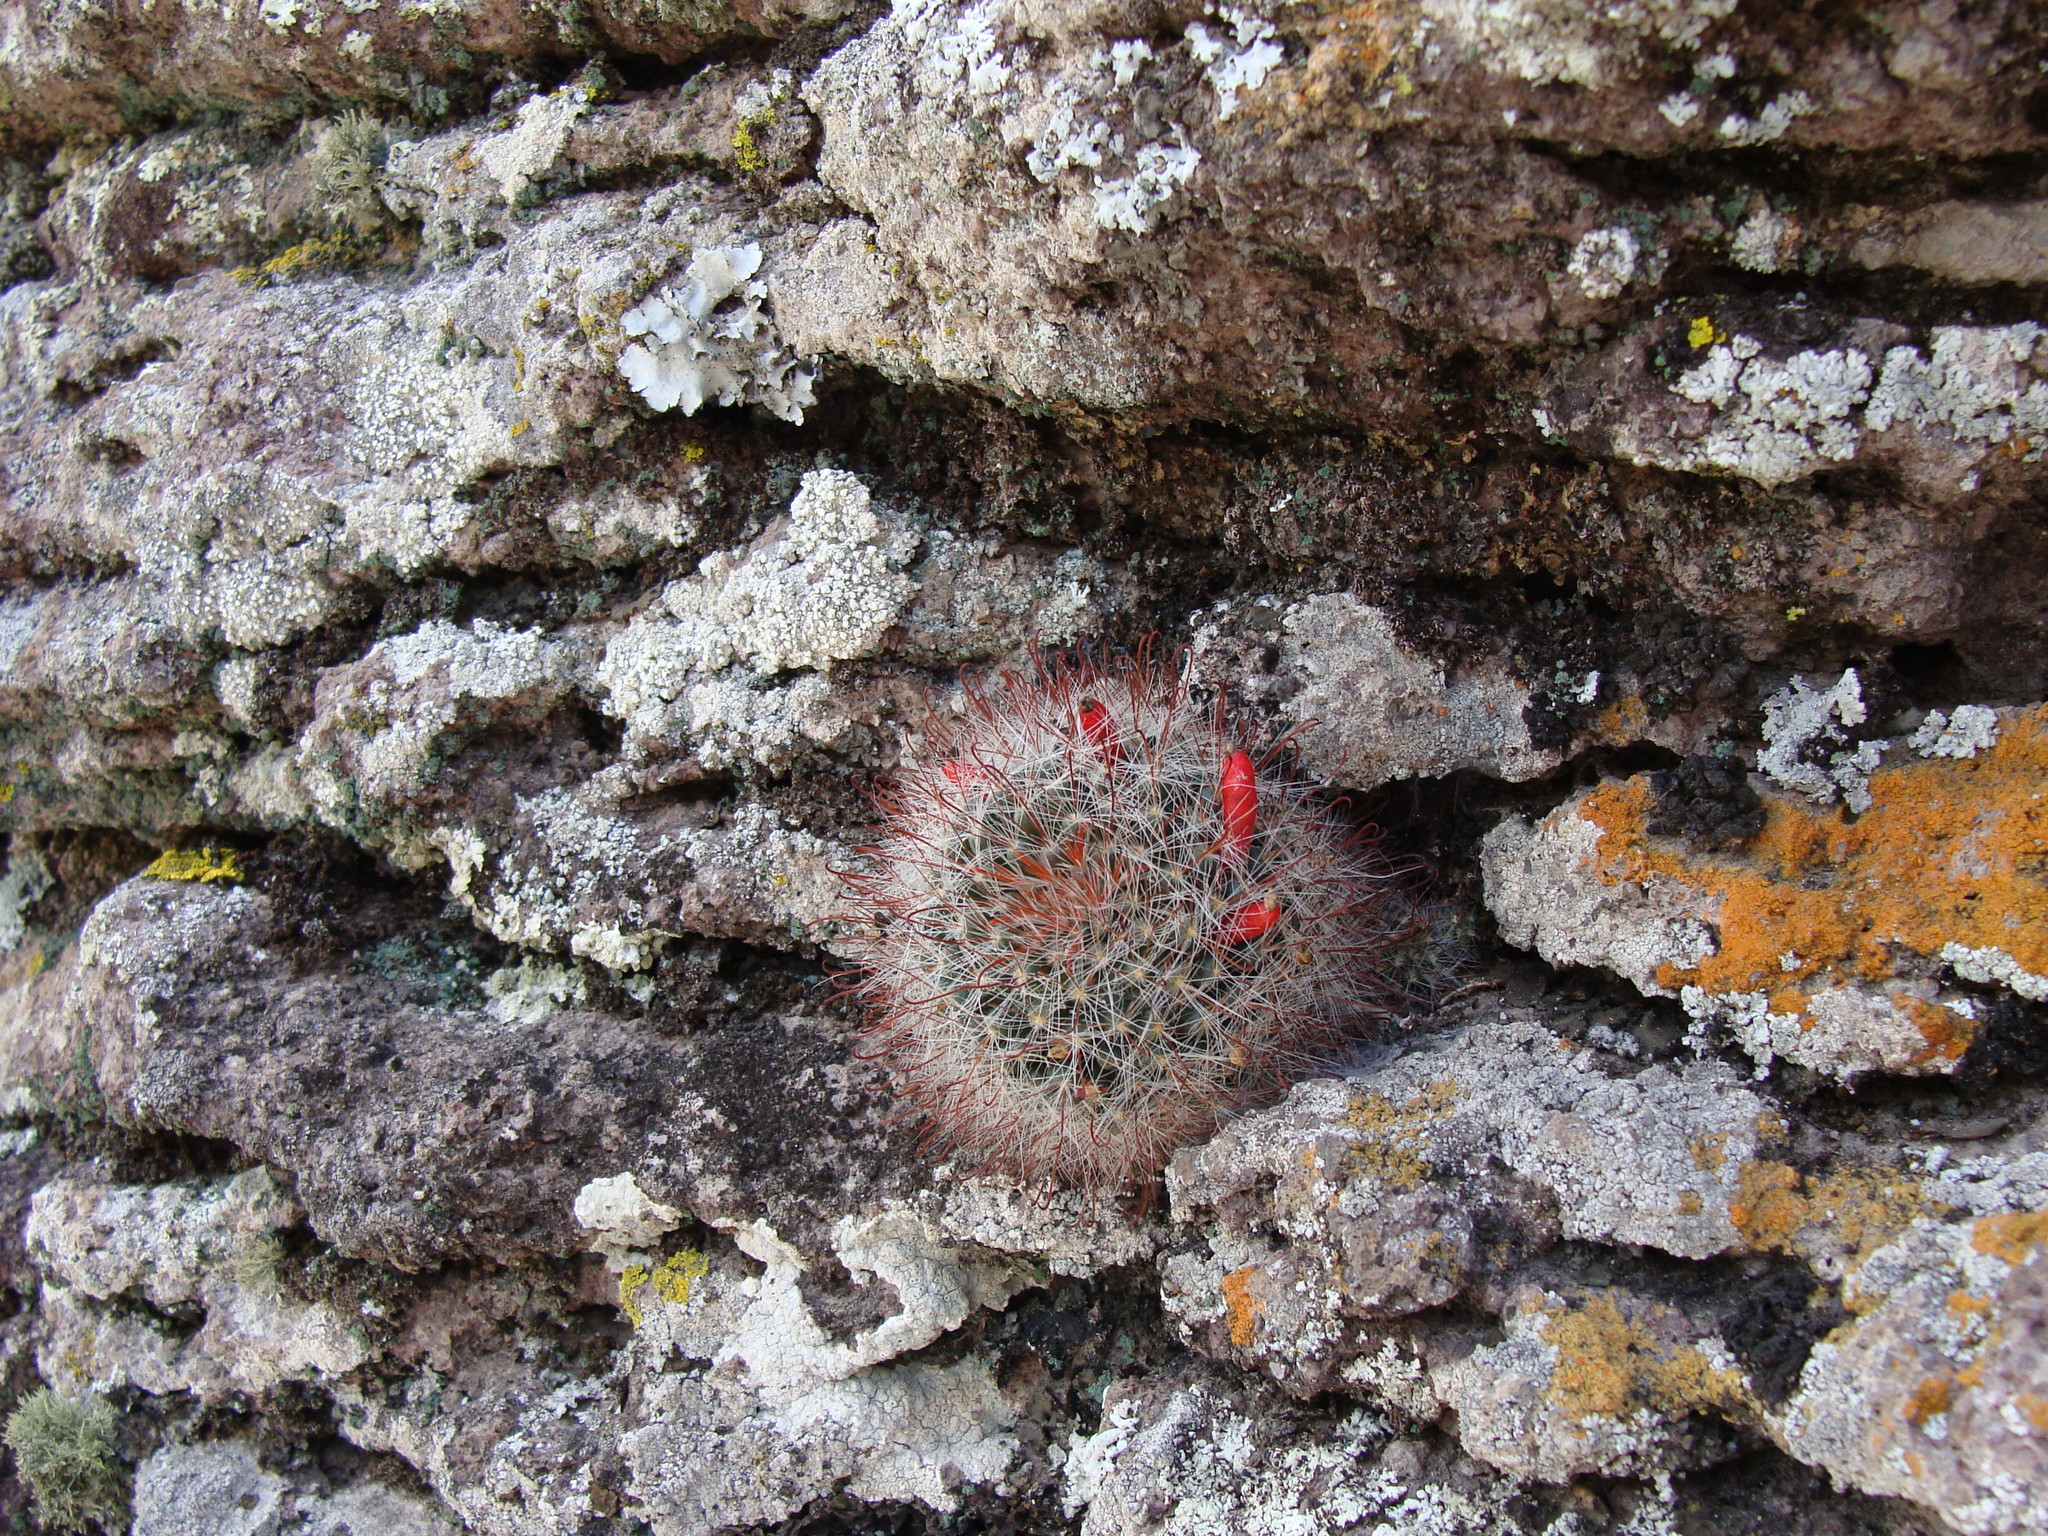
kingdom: Plantae
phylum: Tracheophyta
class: Magnoliopsida
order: Caryophyllales
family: Cactaceae
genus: Mammillaria
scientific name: Mammillaria crinita
